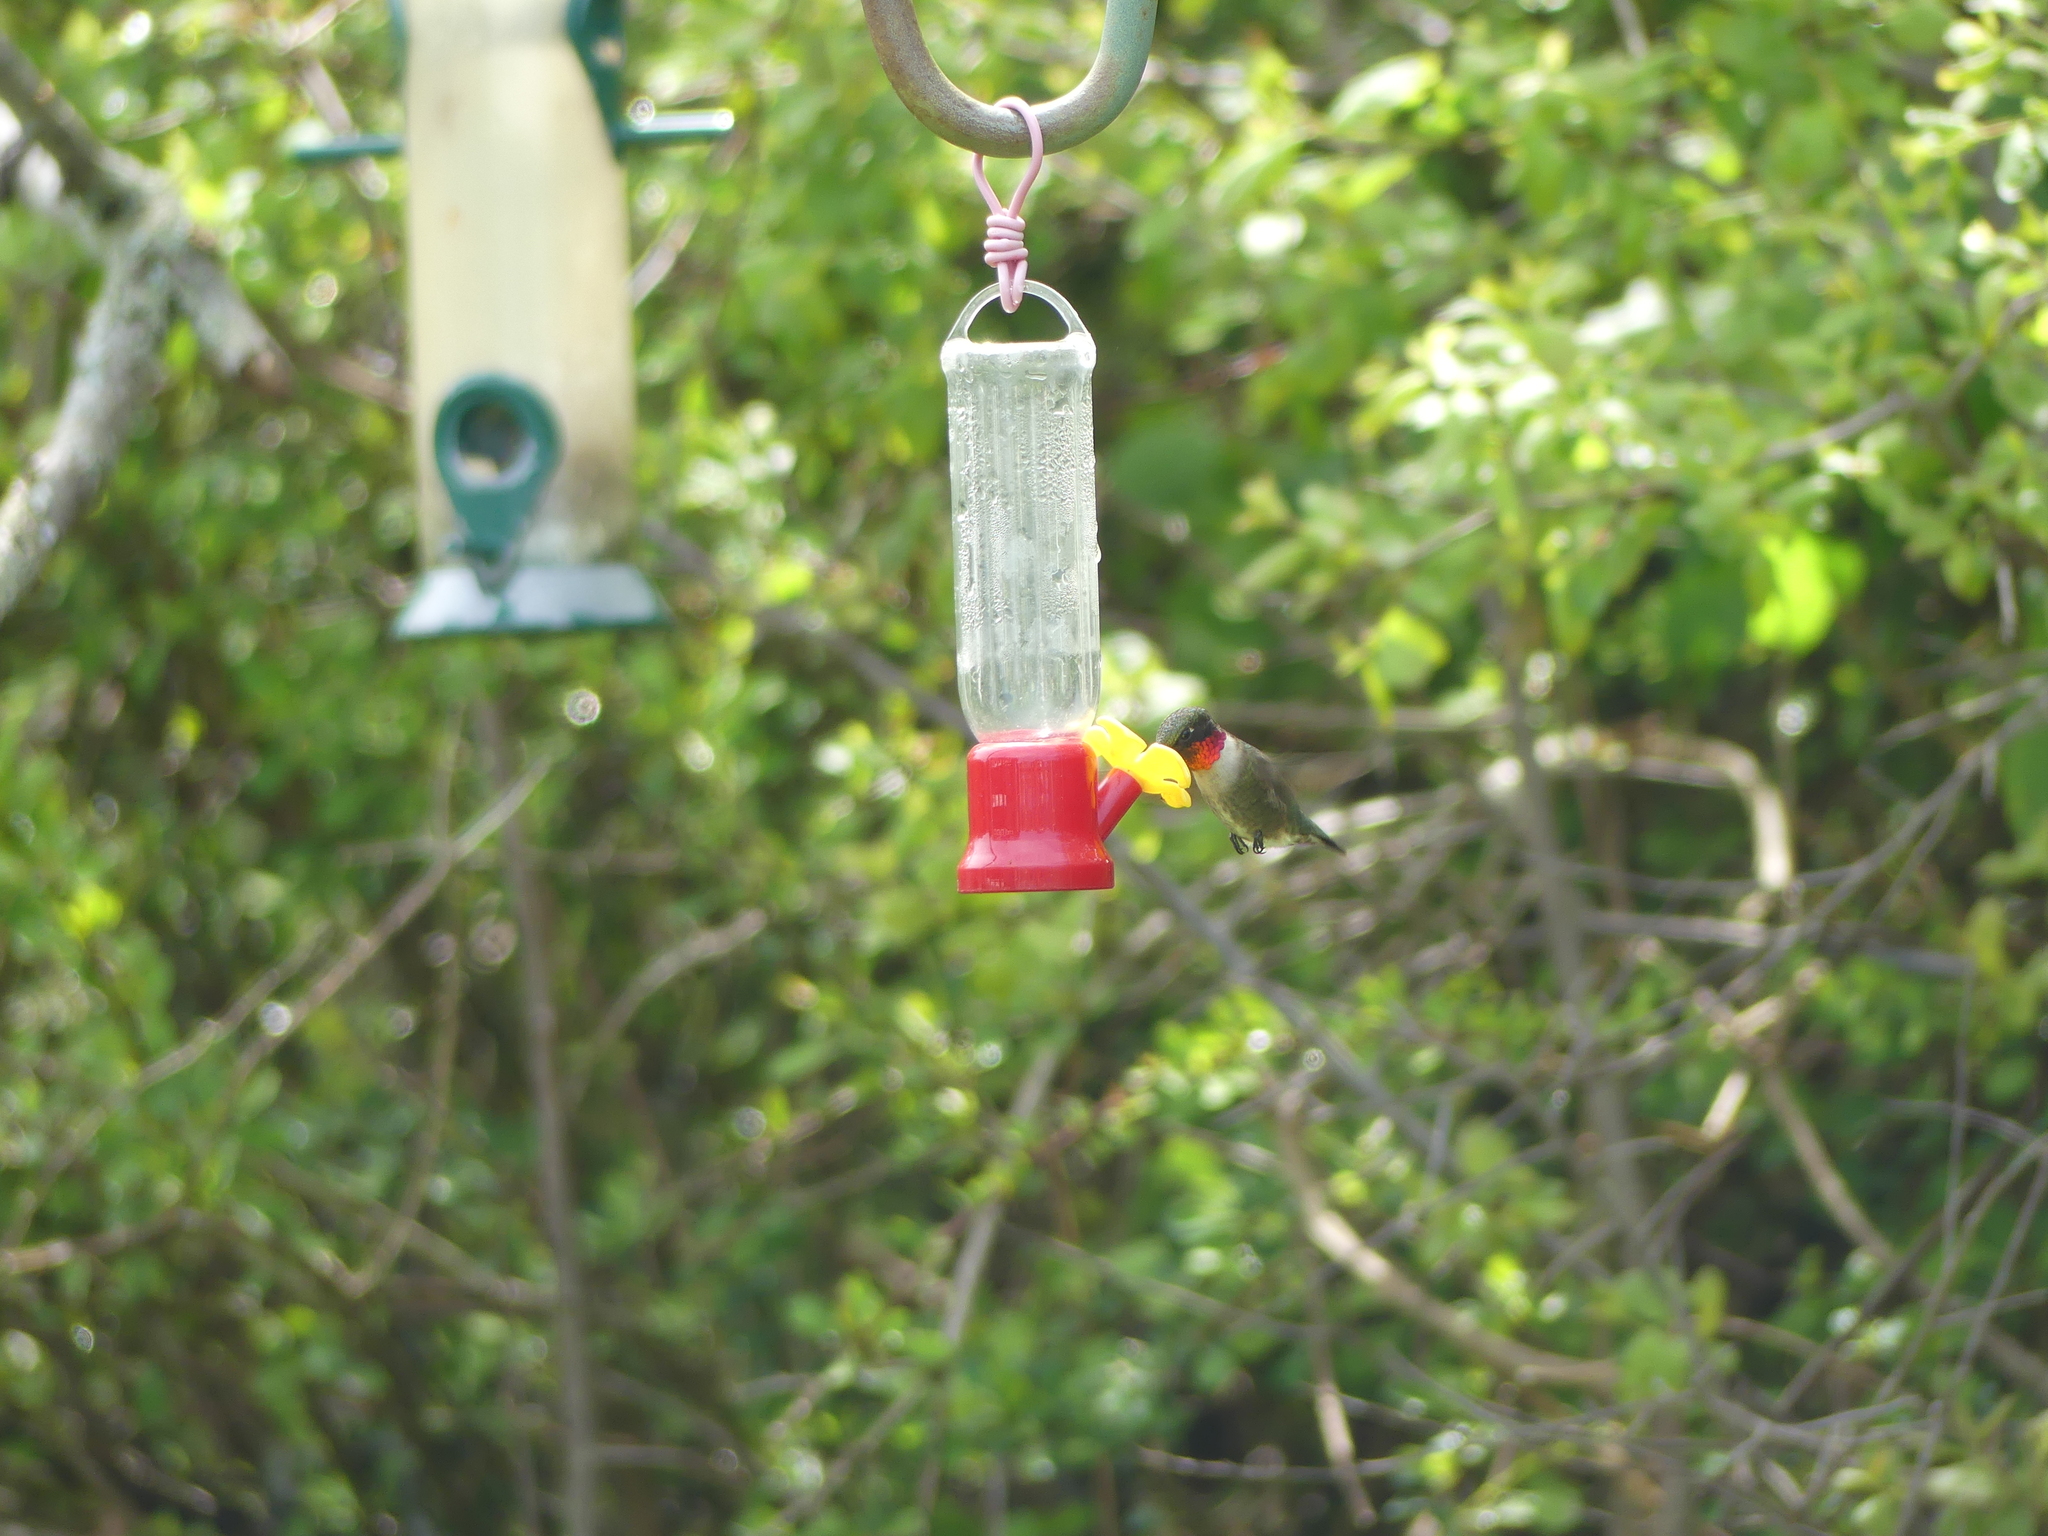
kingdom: Animalia
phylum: Chordata
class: Aves
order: Apodiformes
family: Trochilidae
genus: Archilochus
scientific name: Archilochus colubris
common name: Ruby-throated hummingbird
